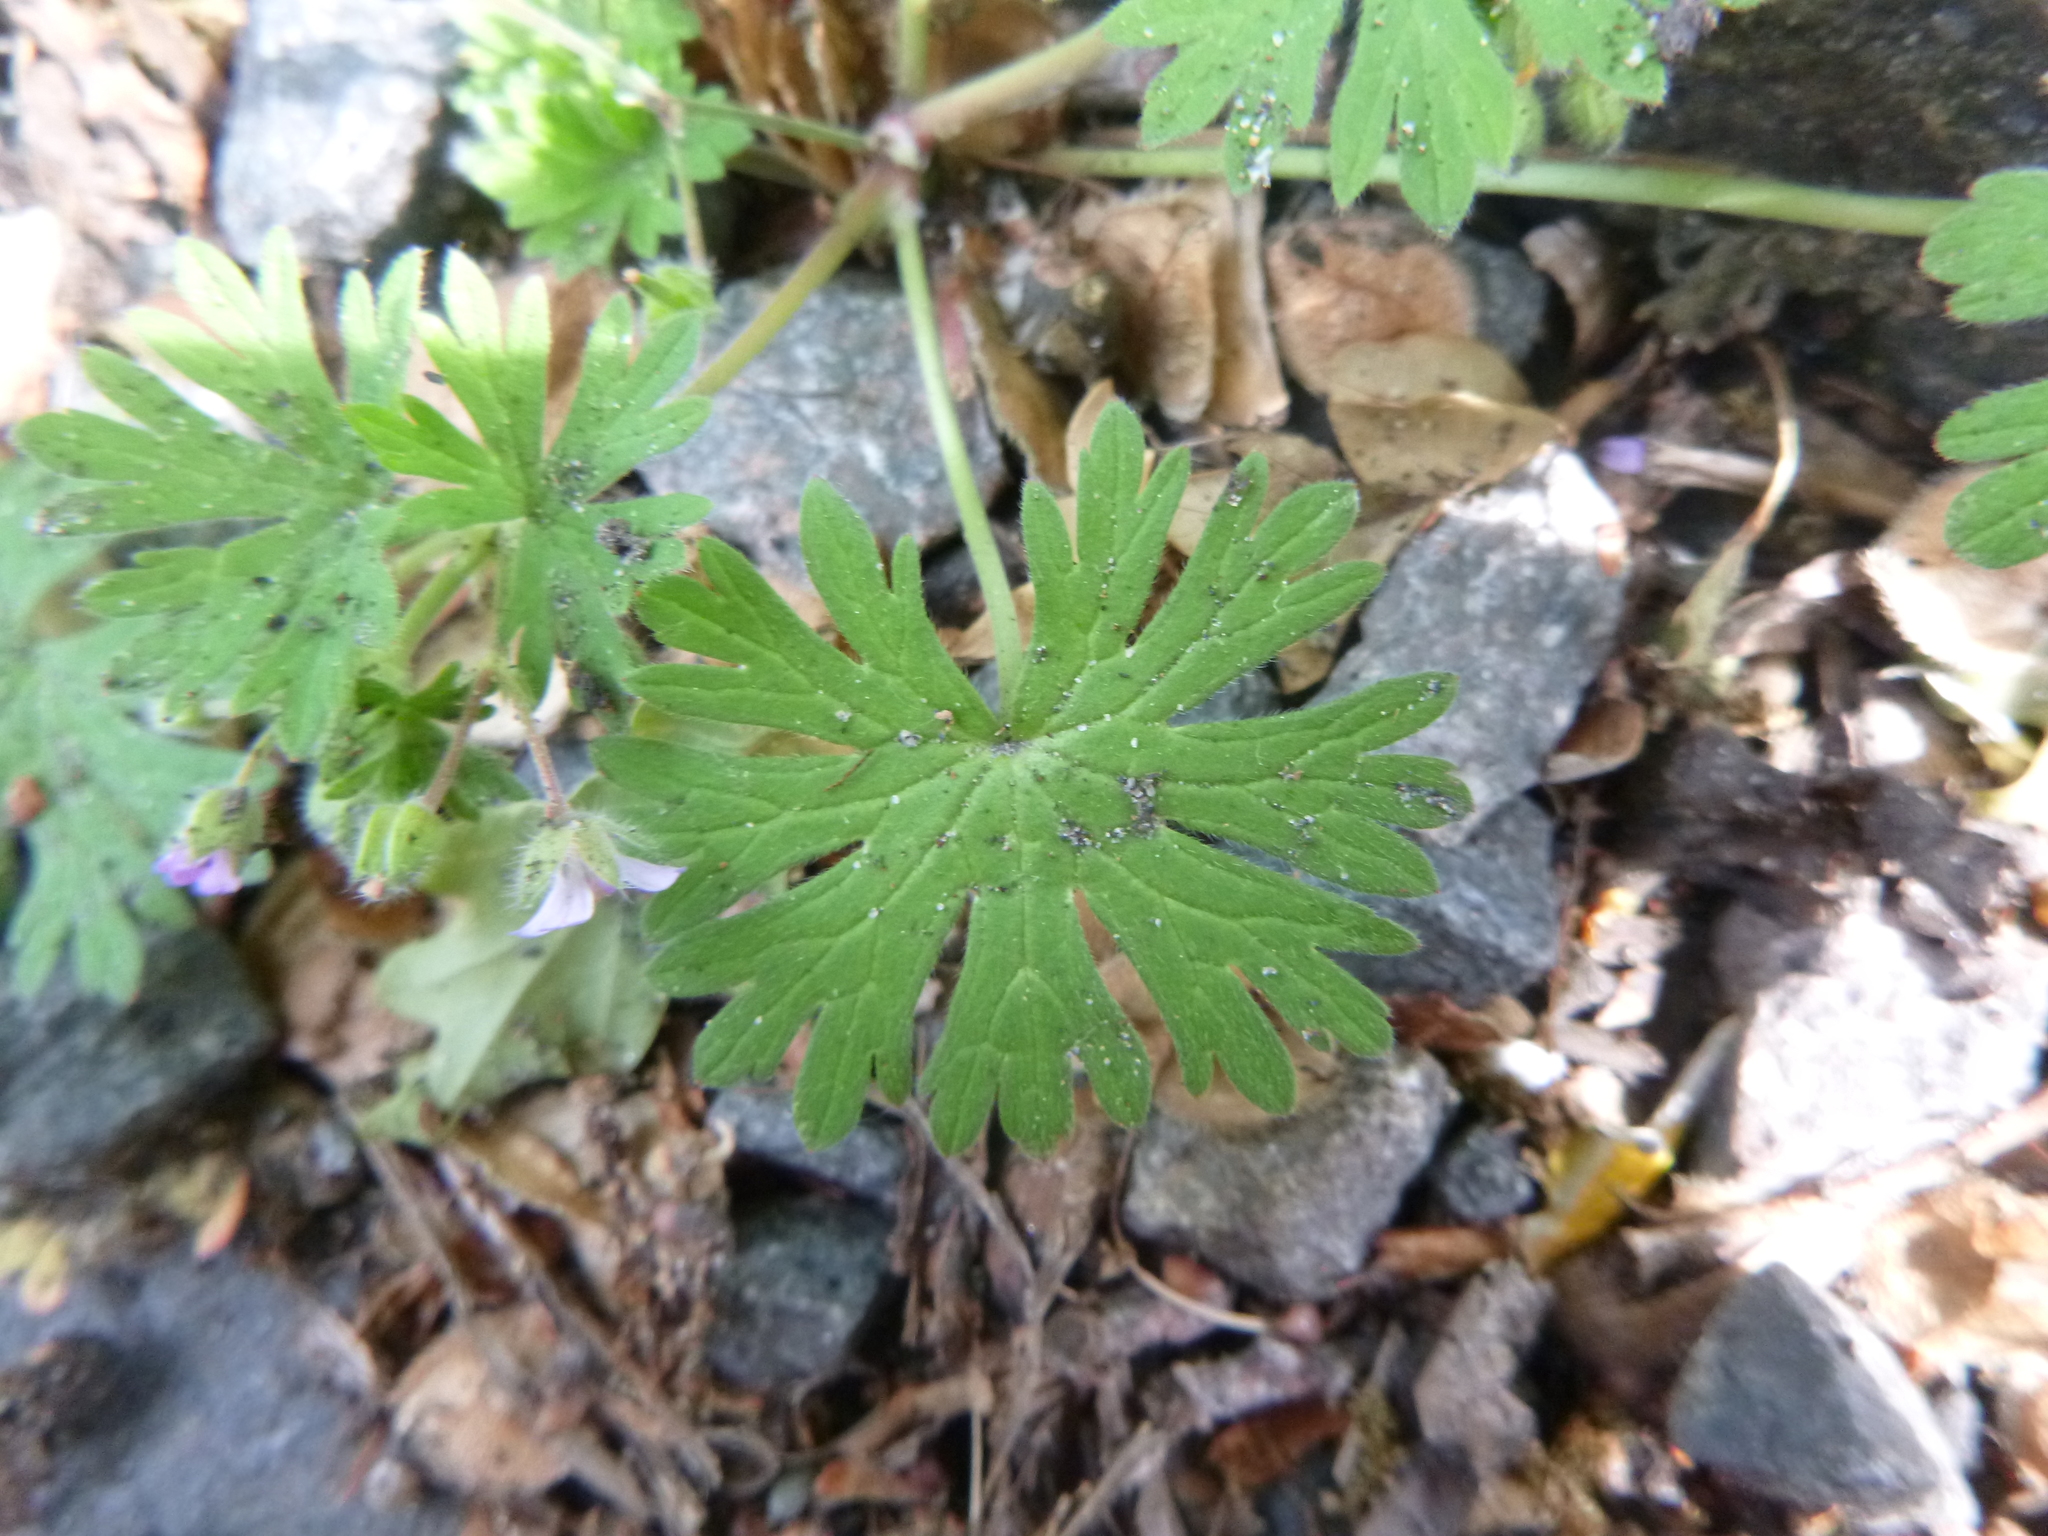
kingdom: Plantae
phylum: Tracheophyta
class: Magnoliopsida
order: Geraniales
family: Geraniaceae
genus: Geranium
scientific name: Geranium pusillum
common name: Small geranium
